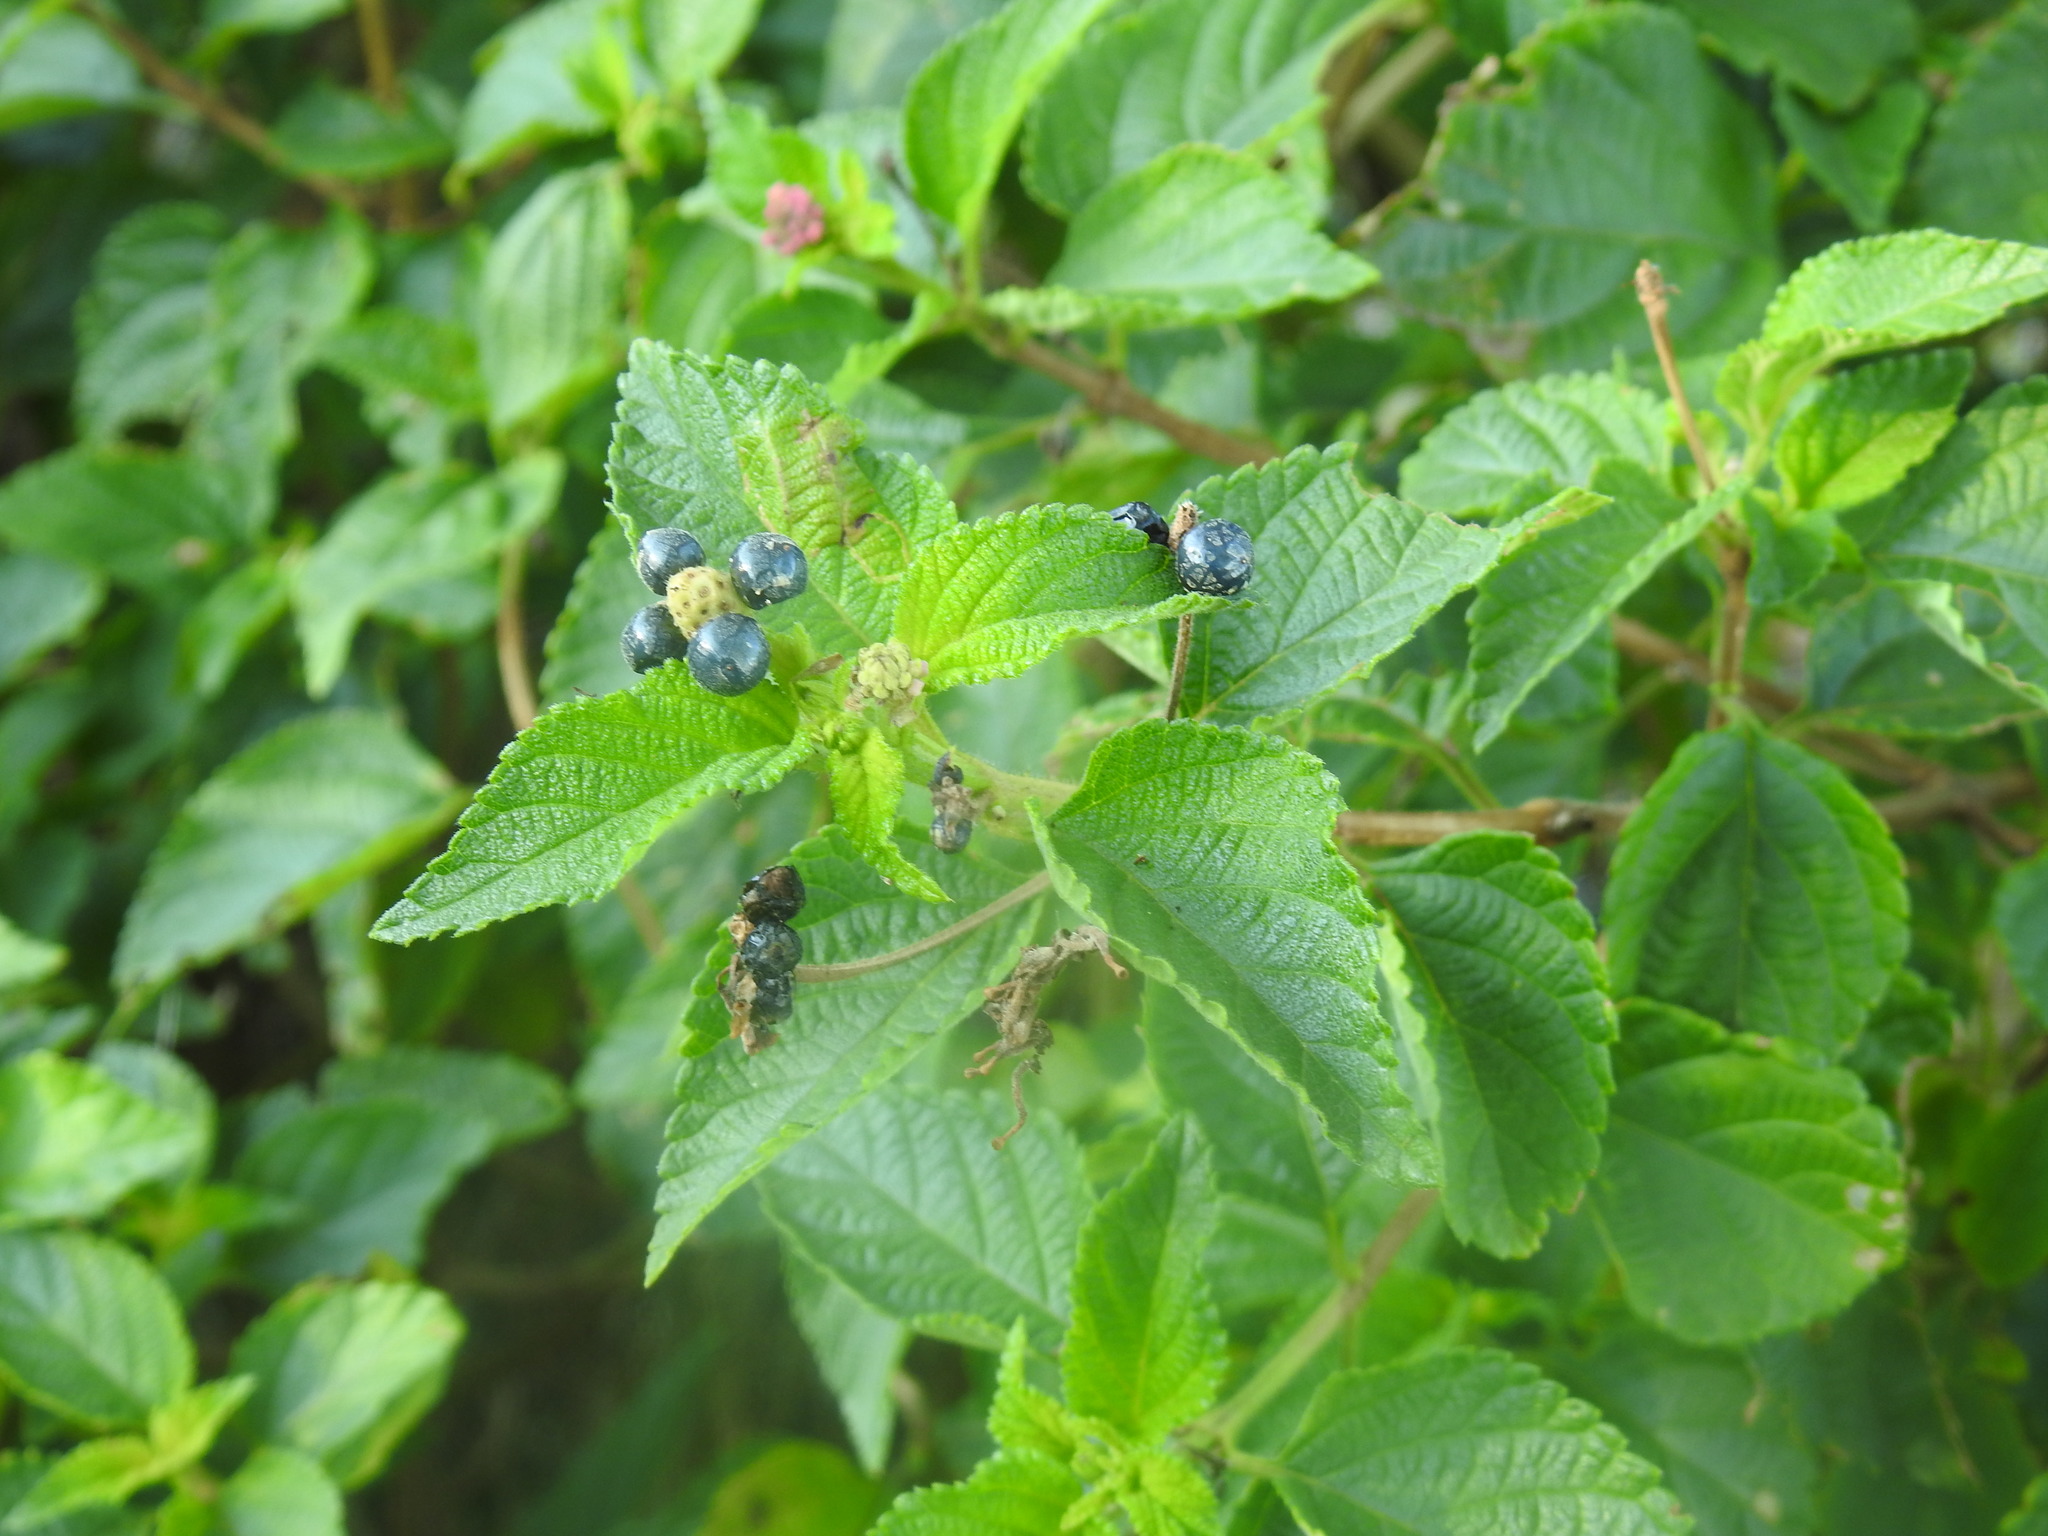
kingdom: Plantae
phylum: Tracheophyta
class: Magnoliopsida
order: Lamiales
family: Verbenaceae
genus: Lantana
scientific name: Lantana camara
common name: Lantana
